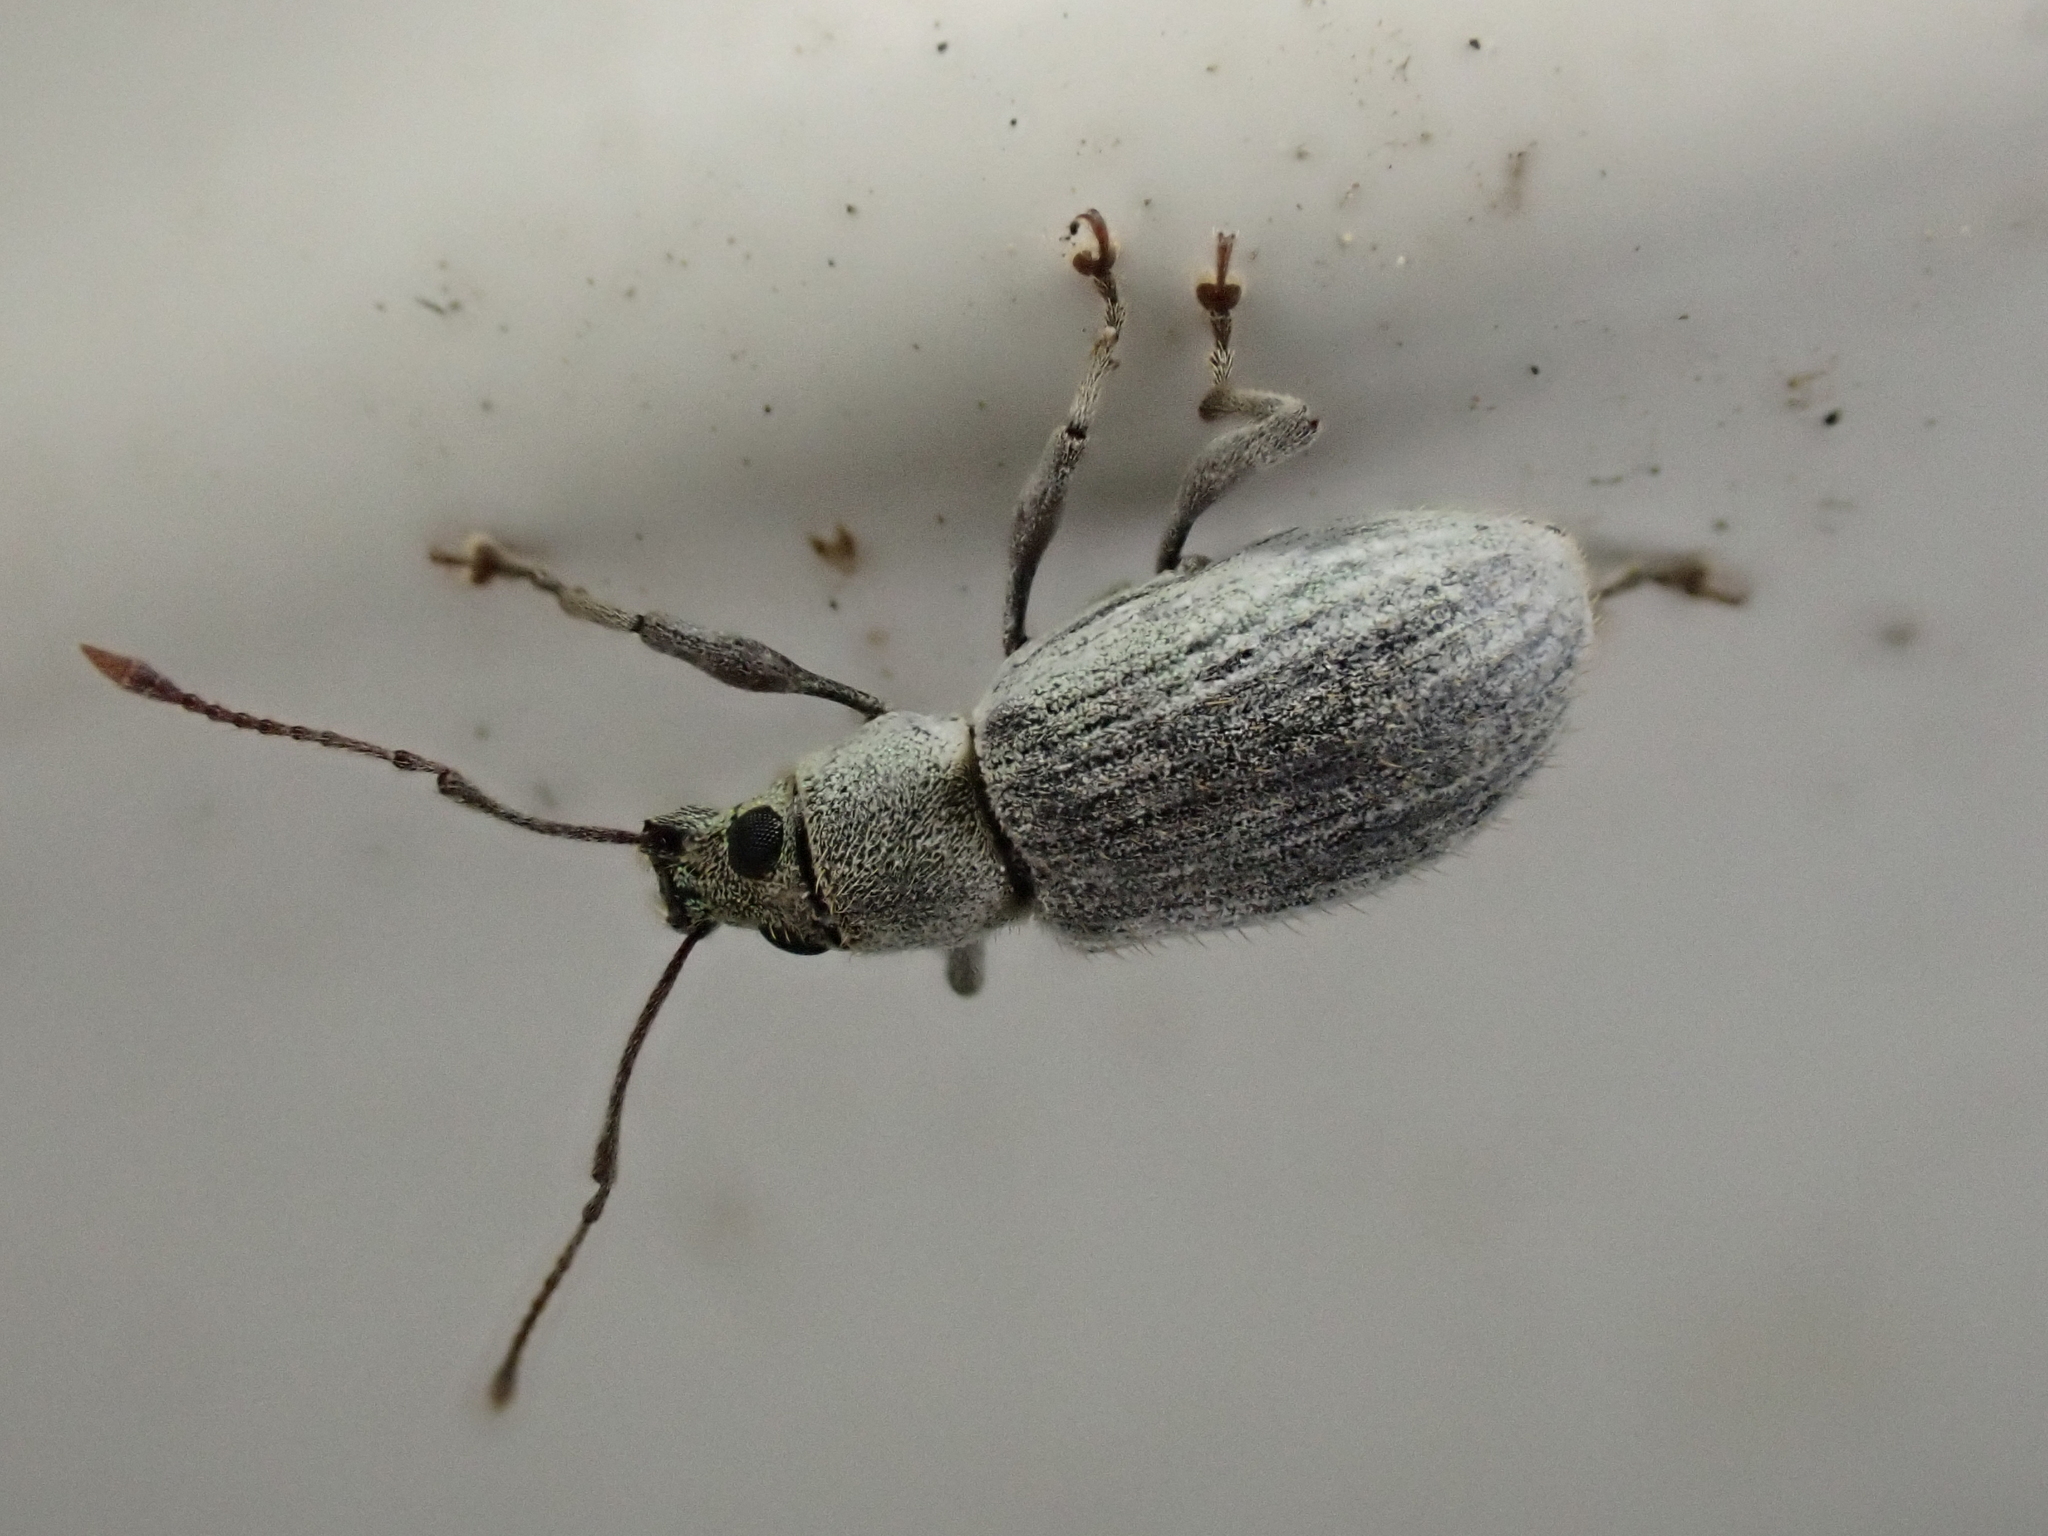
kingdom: Animalia
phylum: Arthropoda
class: Insecta
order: Coleoptera
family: Curculionidae
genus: Cyrtepistomus
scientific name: Cyrtepistomus castaneus
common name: Weevil
